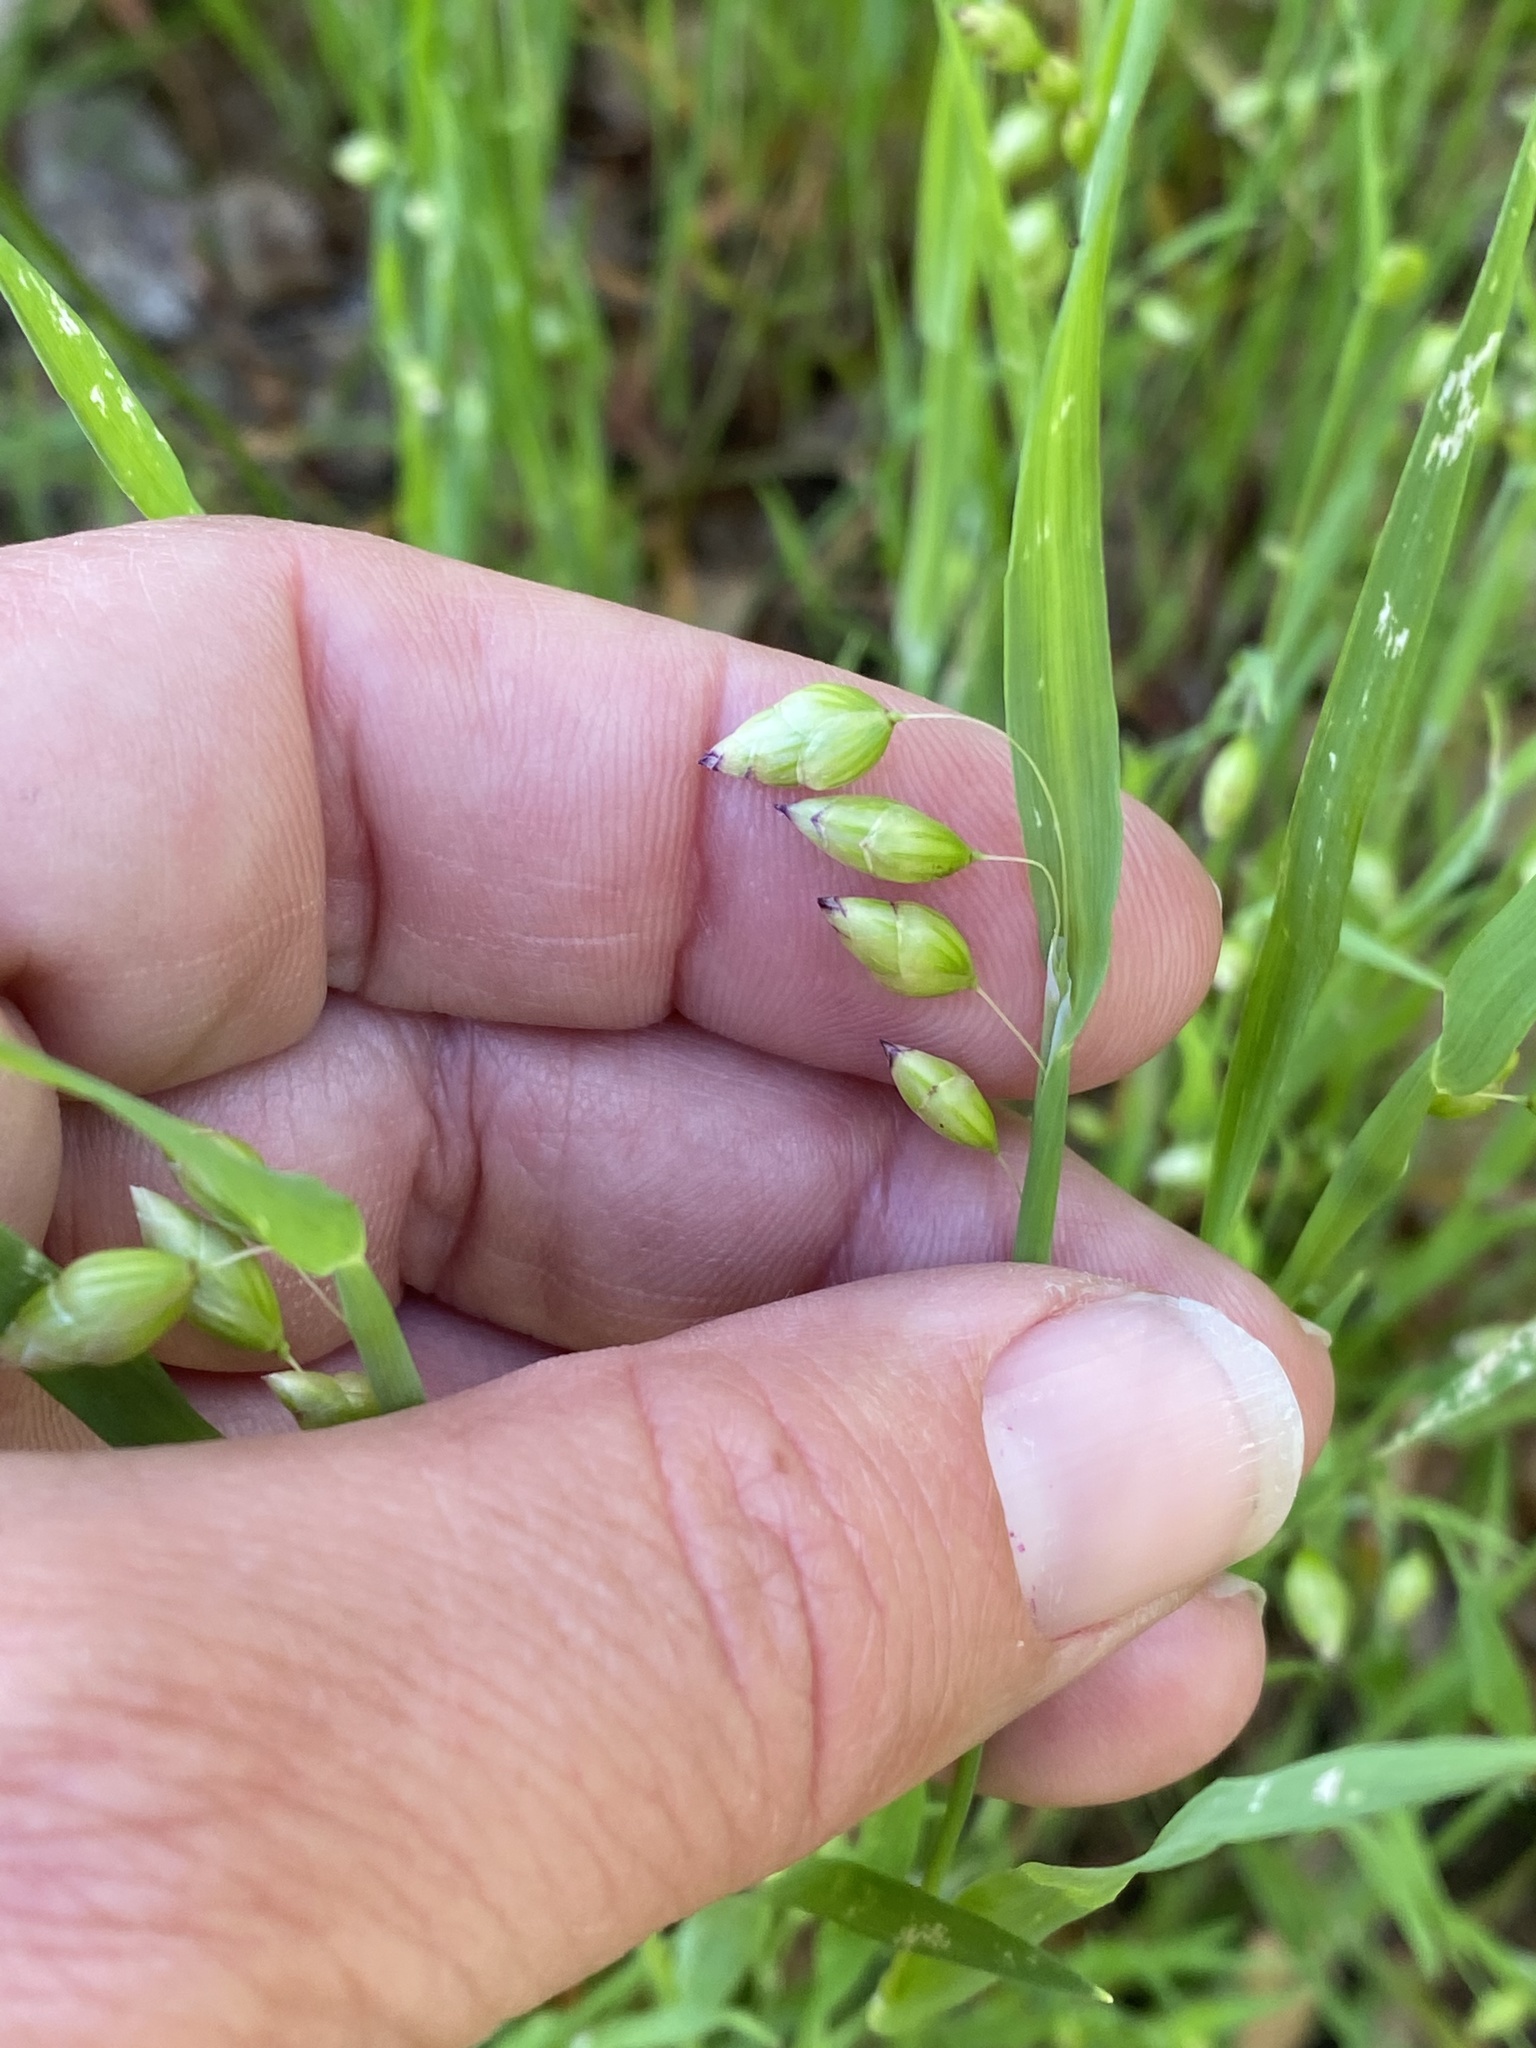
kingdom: Plantae
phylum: Tracheophyta
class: Liliopsida
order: Poales
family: Poaceae
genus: Briza
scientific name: Briza maxima
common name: Big quakinggrass
